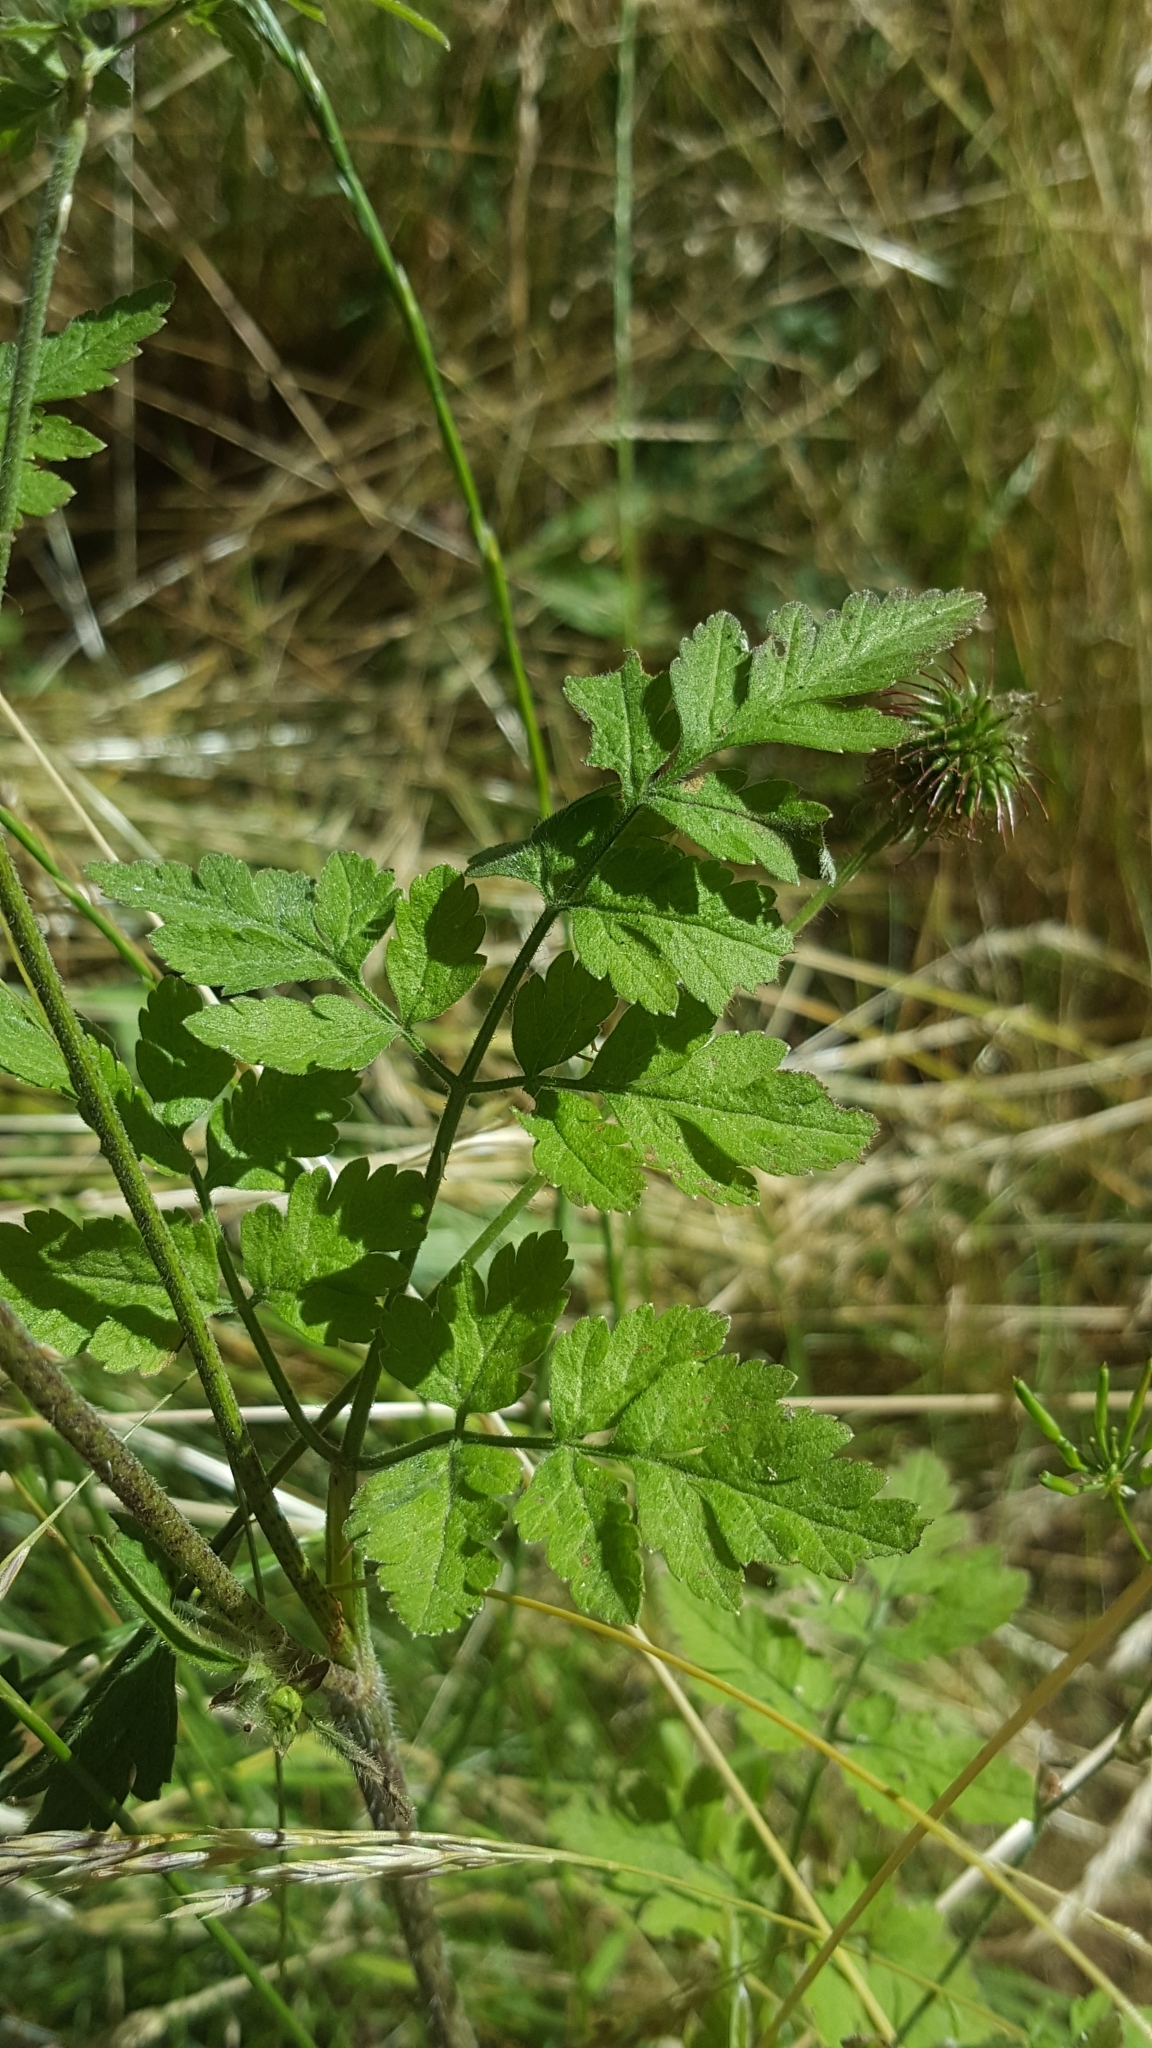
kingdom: Plantae
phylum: Tracheophyta
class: Magnoliopsida
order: Apiales
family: Apiaceae
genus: Chaerophyllum
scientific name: Chaerophyllum temulum
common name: Rough chervil
